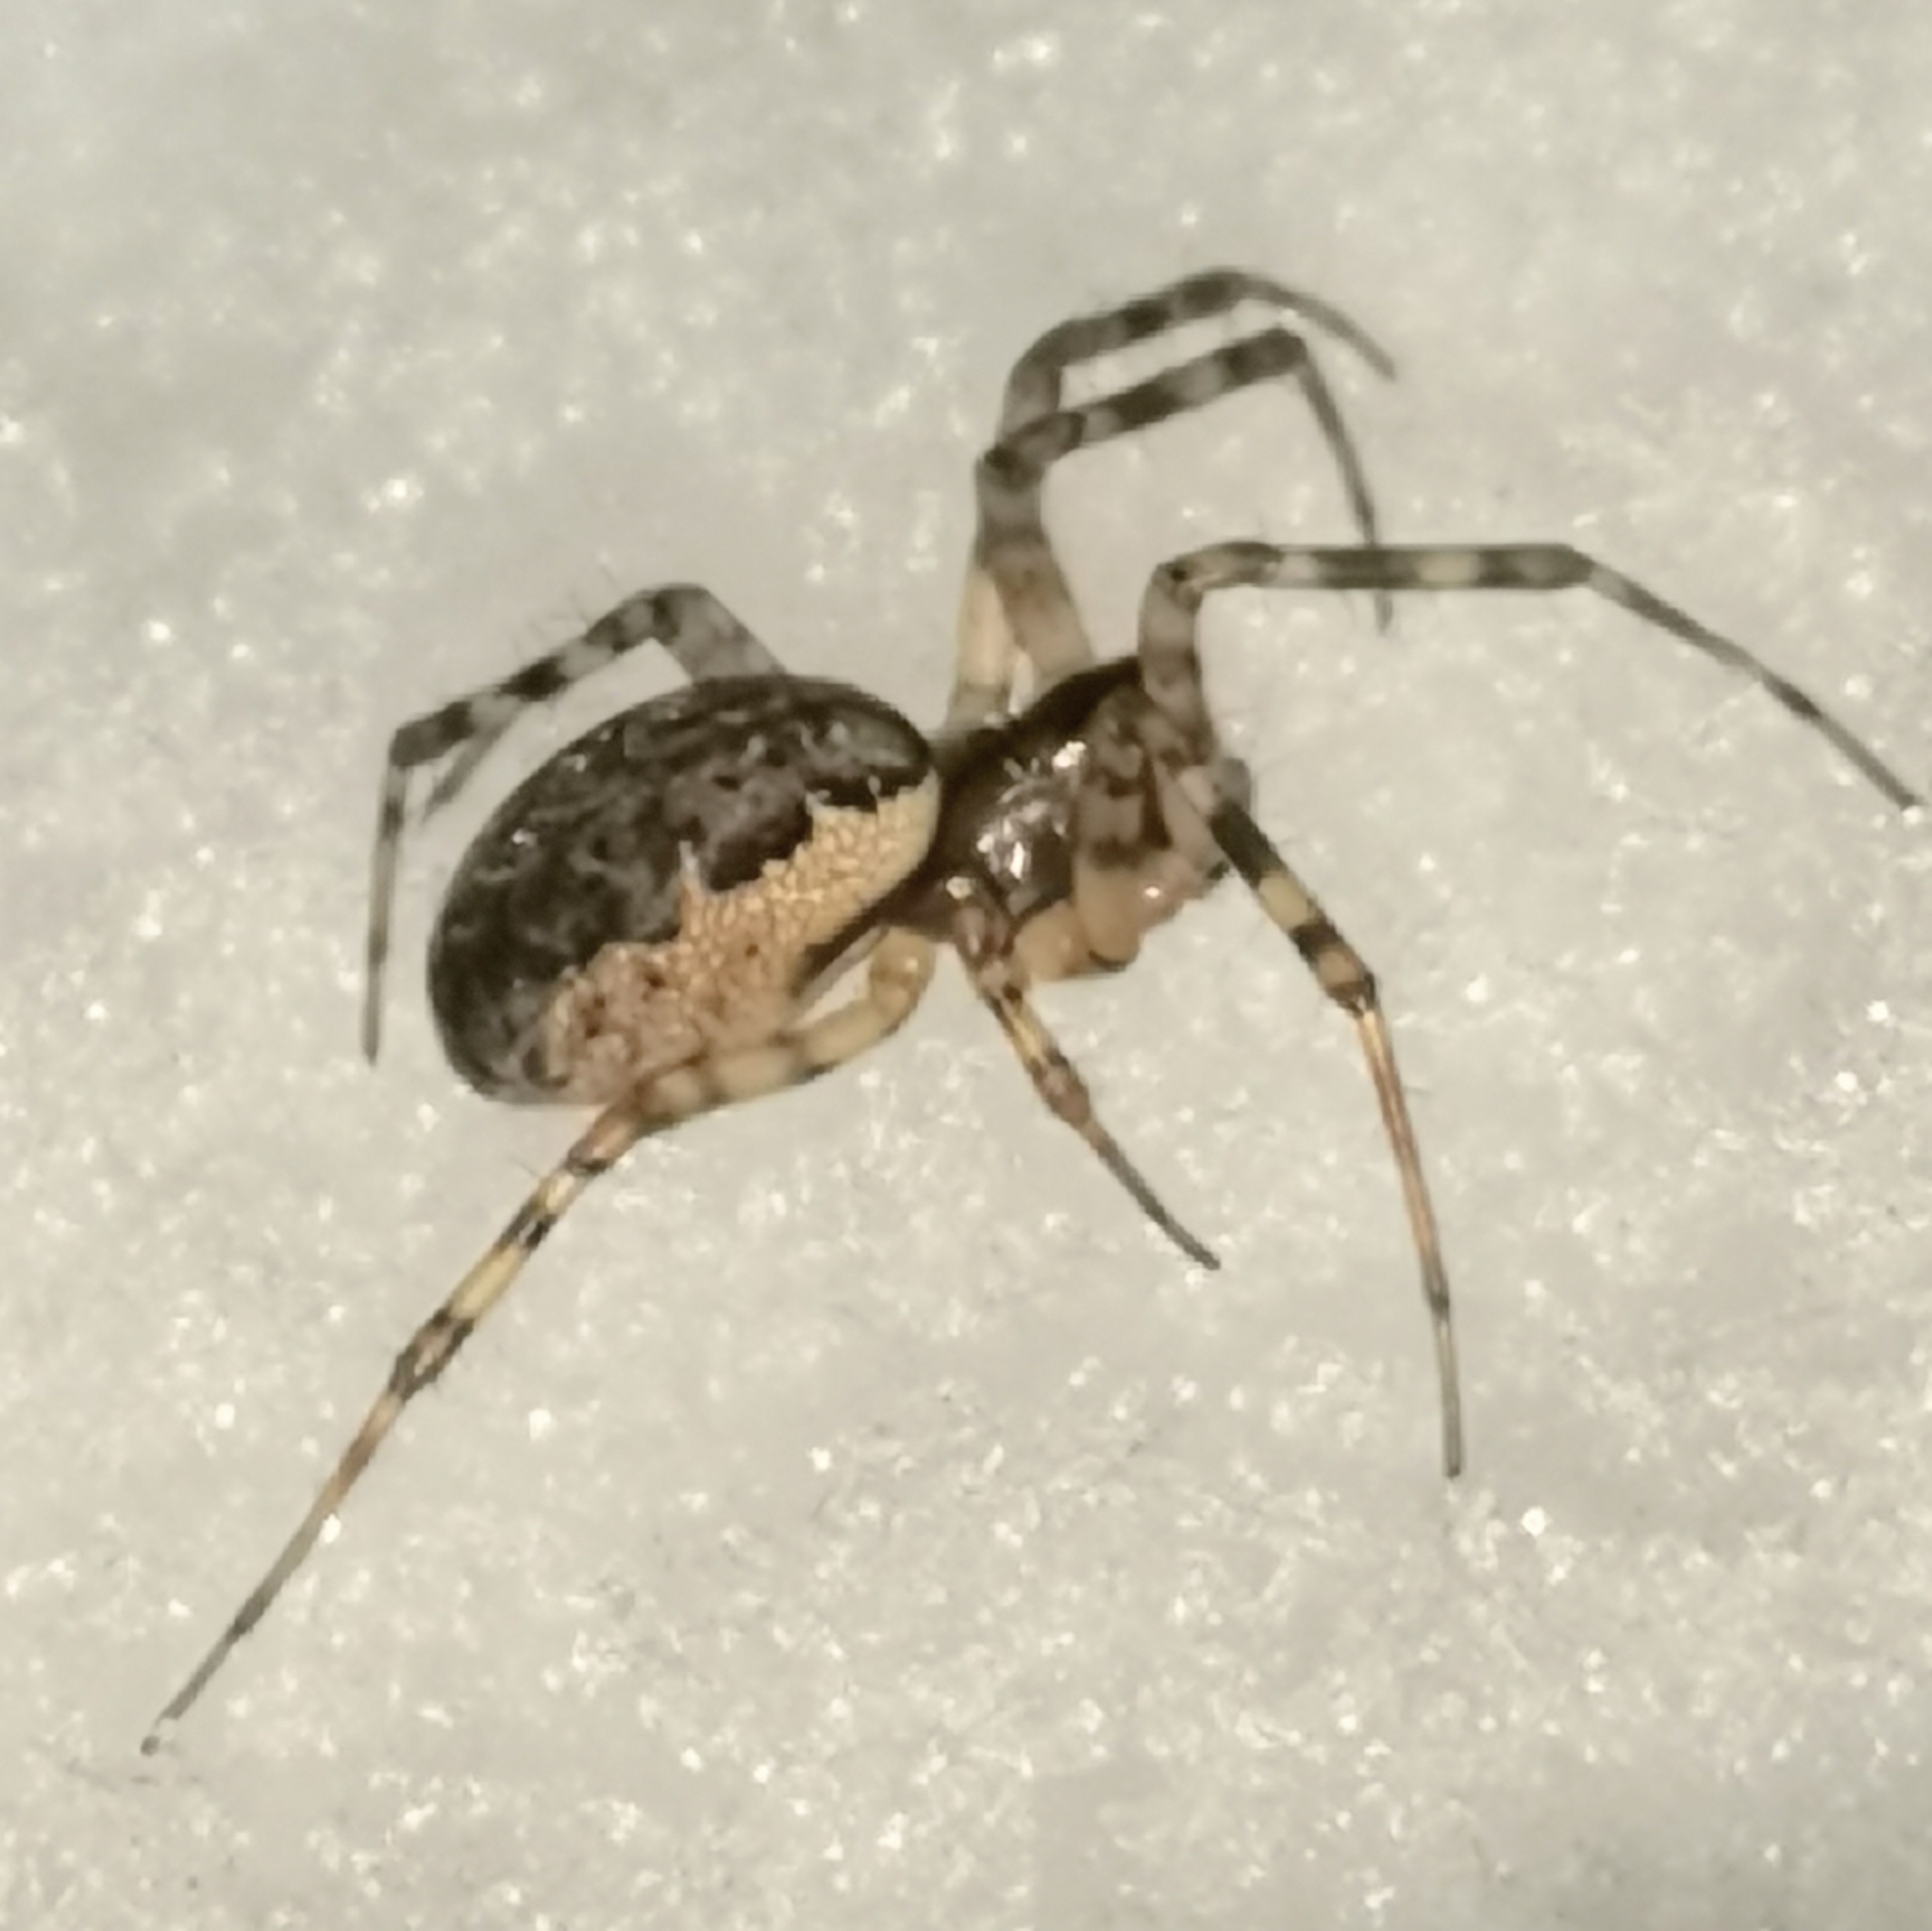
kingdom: Animalia
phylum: Arthropoda
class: Arachnida
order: Araneae
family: Linyphiidae
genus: Neriene
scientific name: Neriene montana
